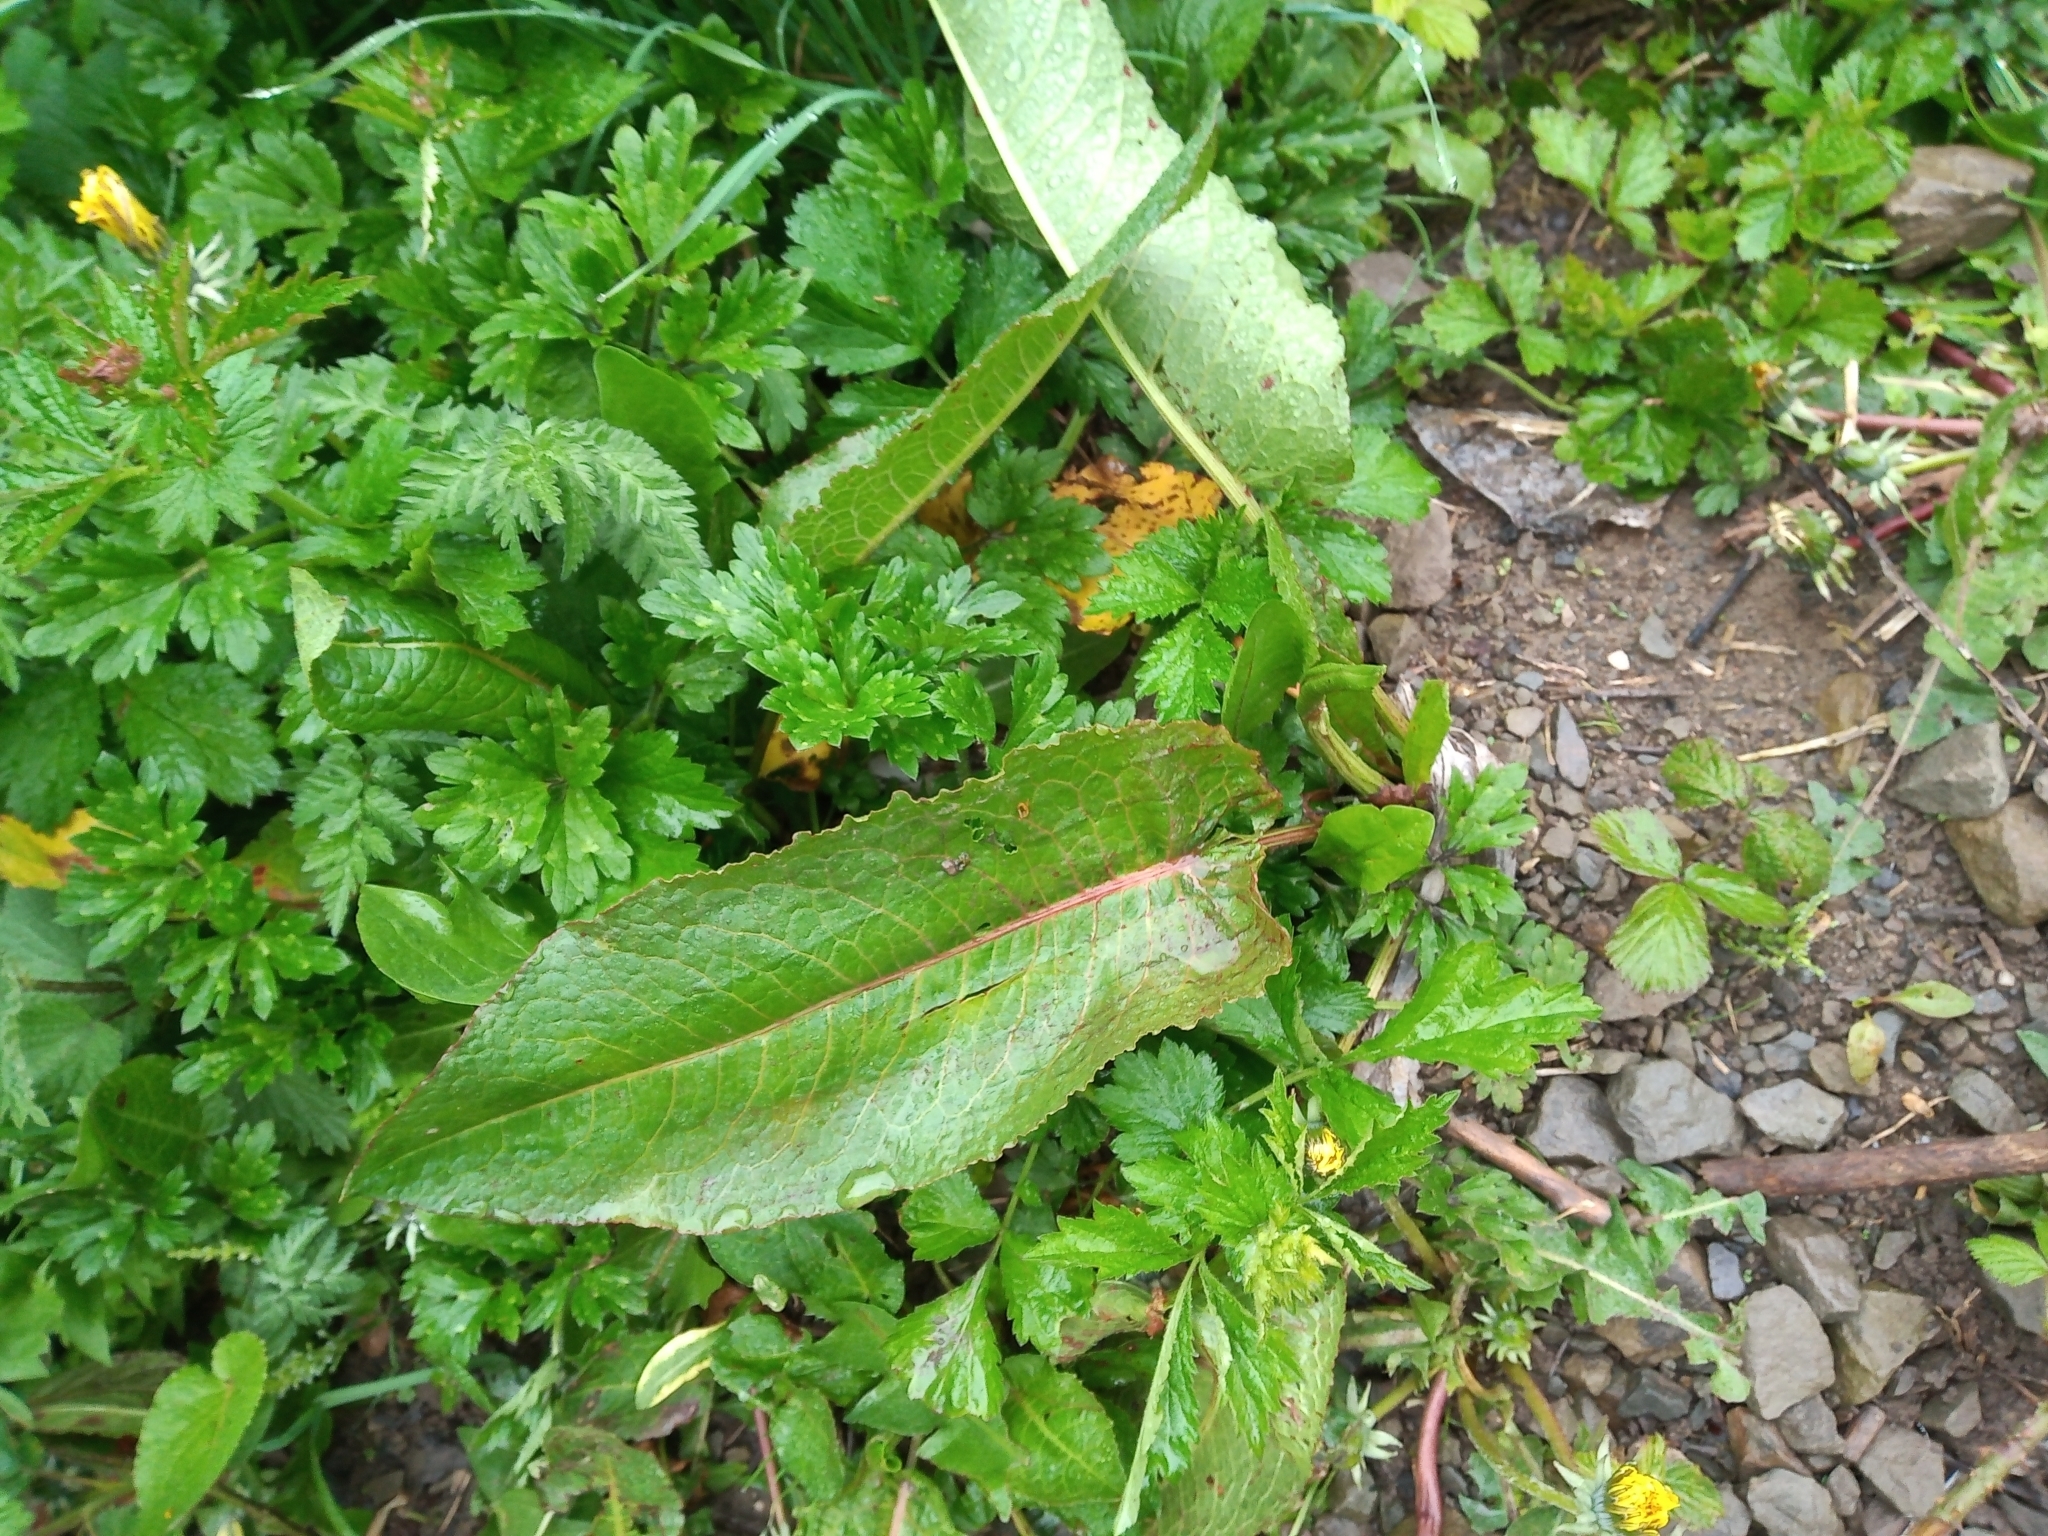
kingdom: Plantae
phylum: Tracheophyta
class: Magnoliopsida
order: Caryophyllales
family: Polygonaceae
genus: Rumex
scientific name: Rumex obtusifolius
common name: Bitter dock
